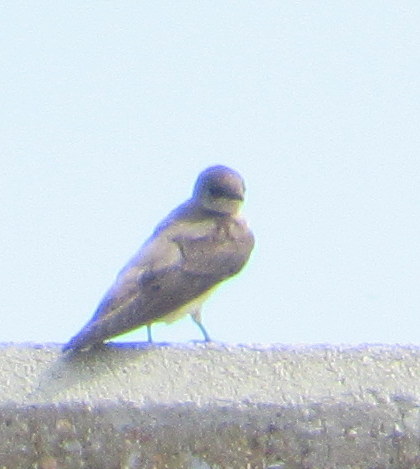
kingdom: Animalia
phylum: Chordata
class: Aves
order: Passeriformes
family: Hirundinidae
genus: Stelgidopteryx
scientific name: Stelgidopteryx serripennis
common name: Northern rough-winged swallow
